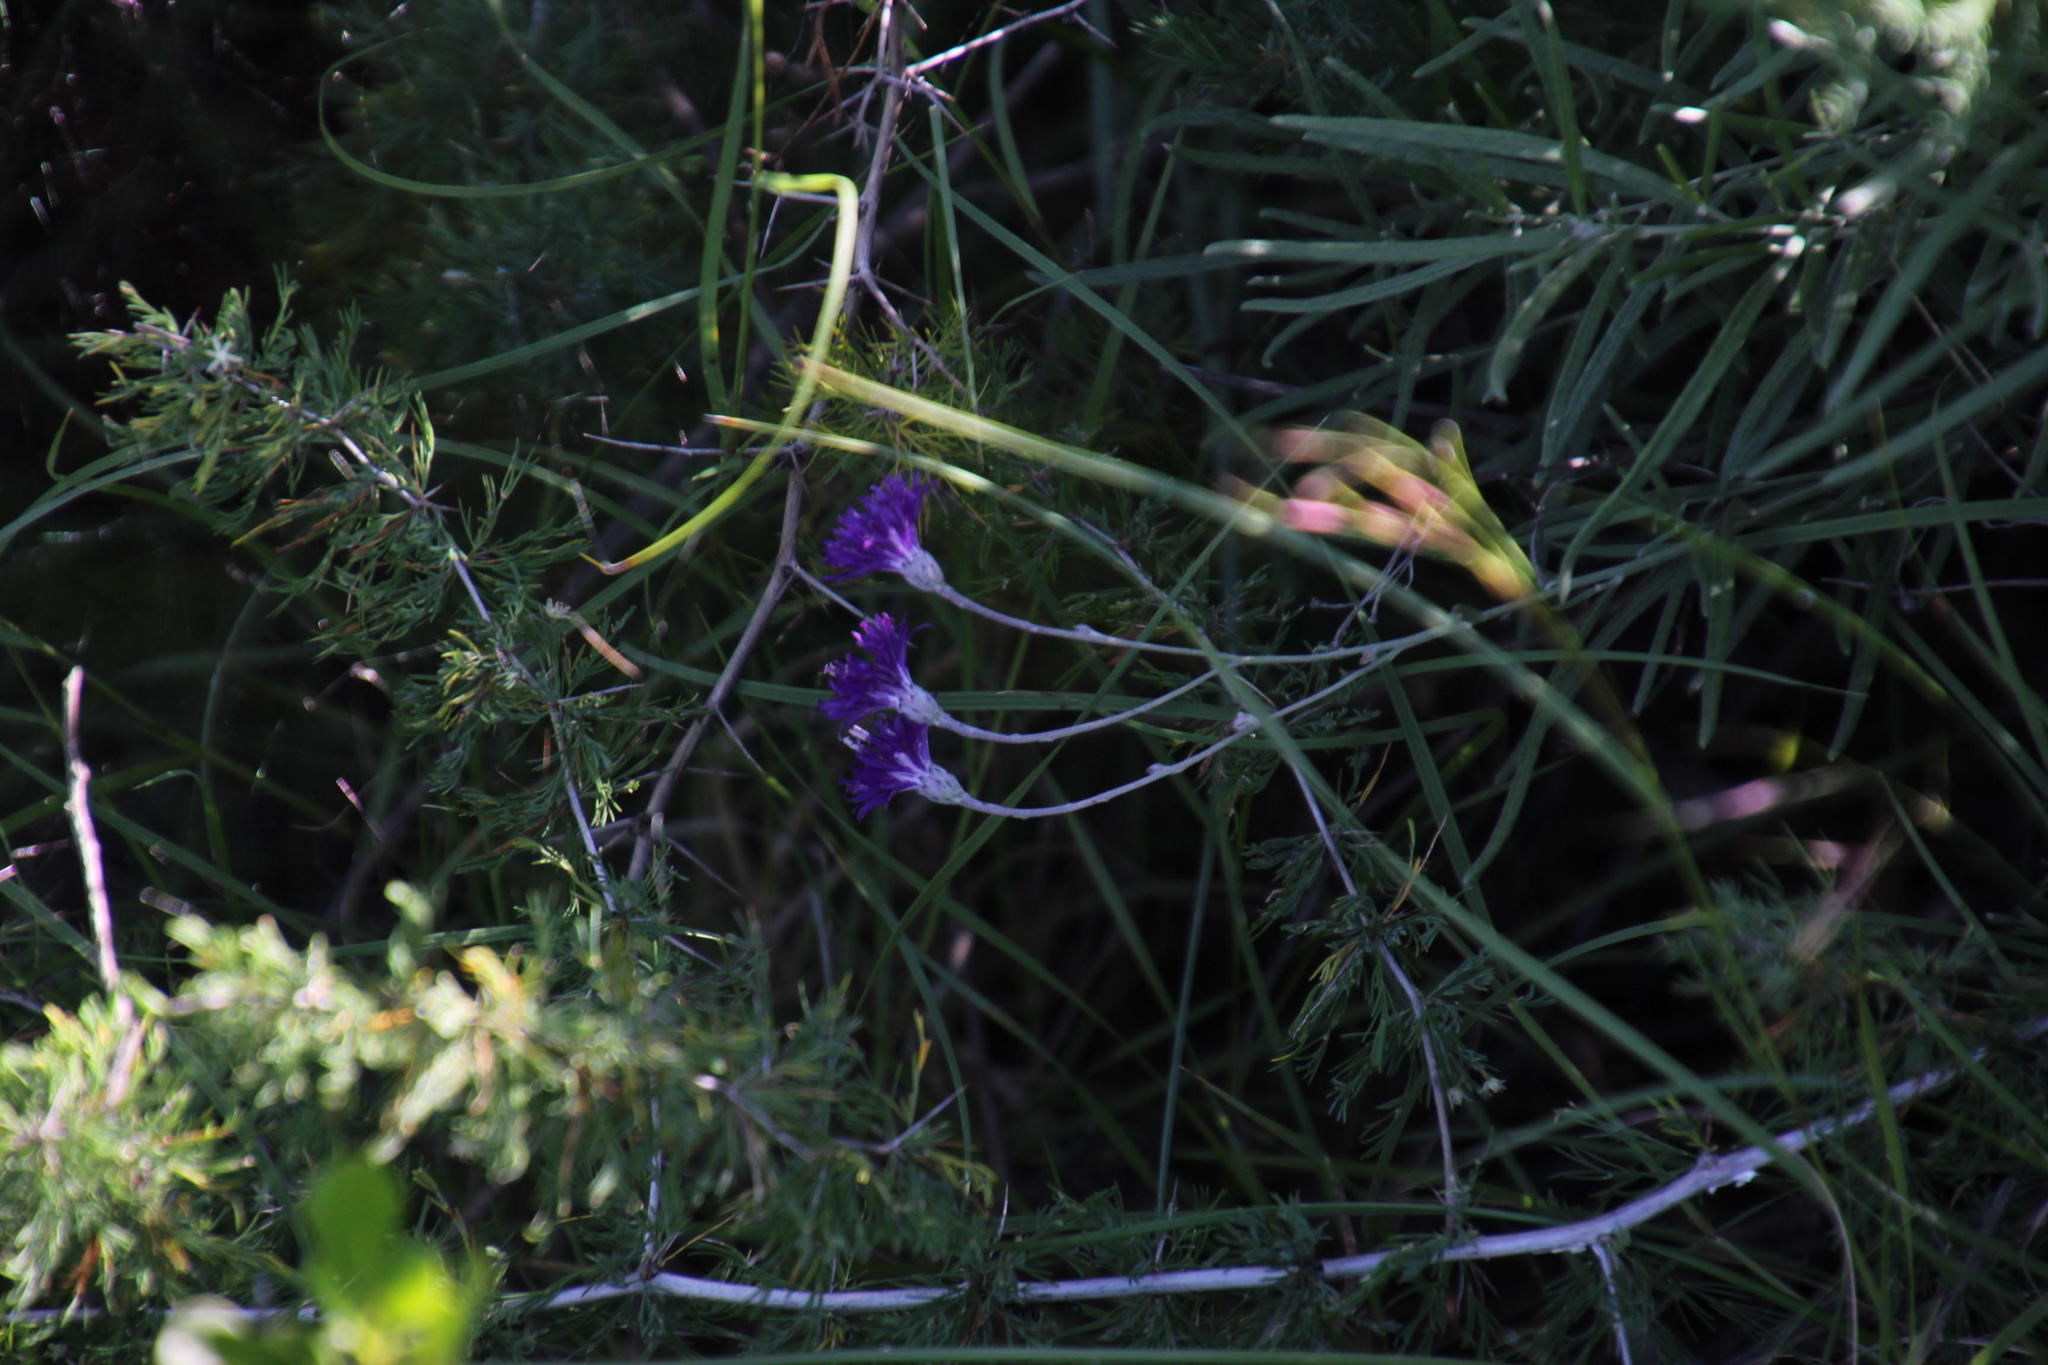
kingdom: Plantae
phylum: Tracheophyta
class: Magnoliopsida
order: Asterales
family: Asteraceae
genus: Hilliardiella
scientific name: Hilliardiella capensis
